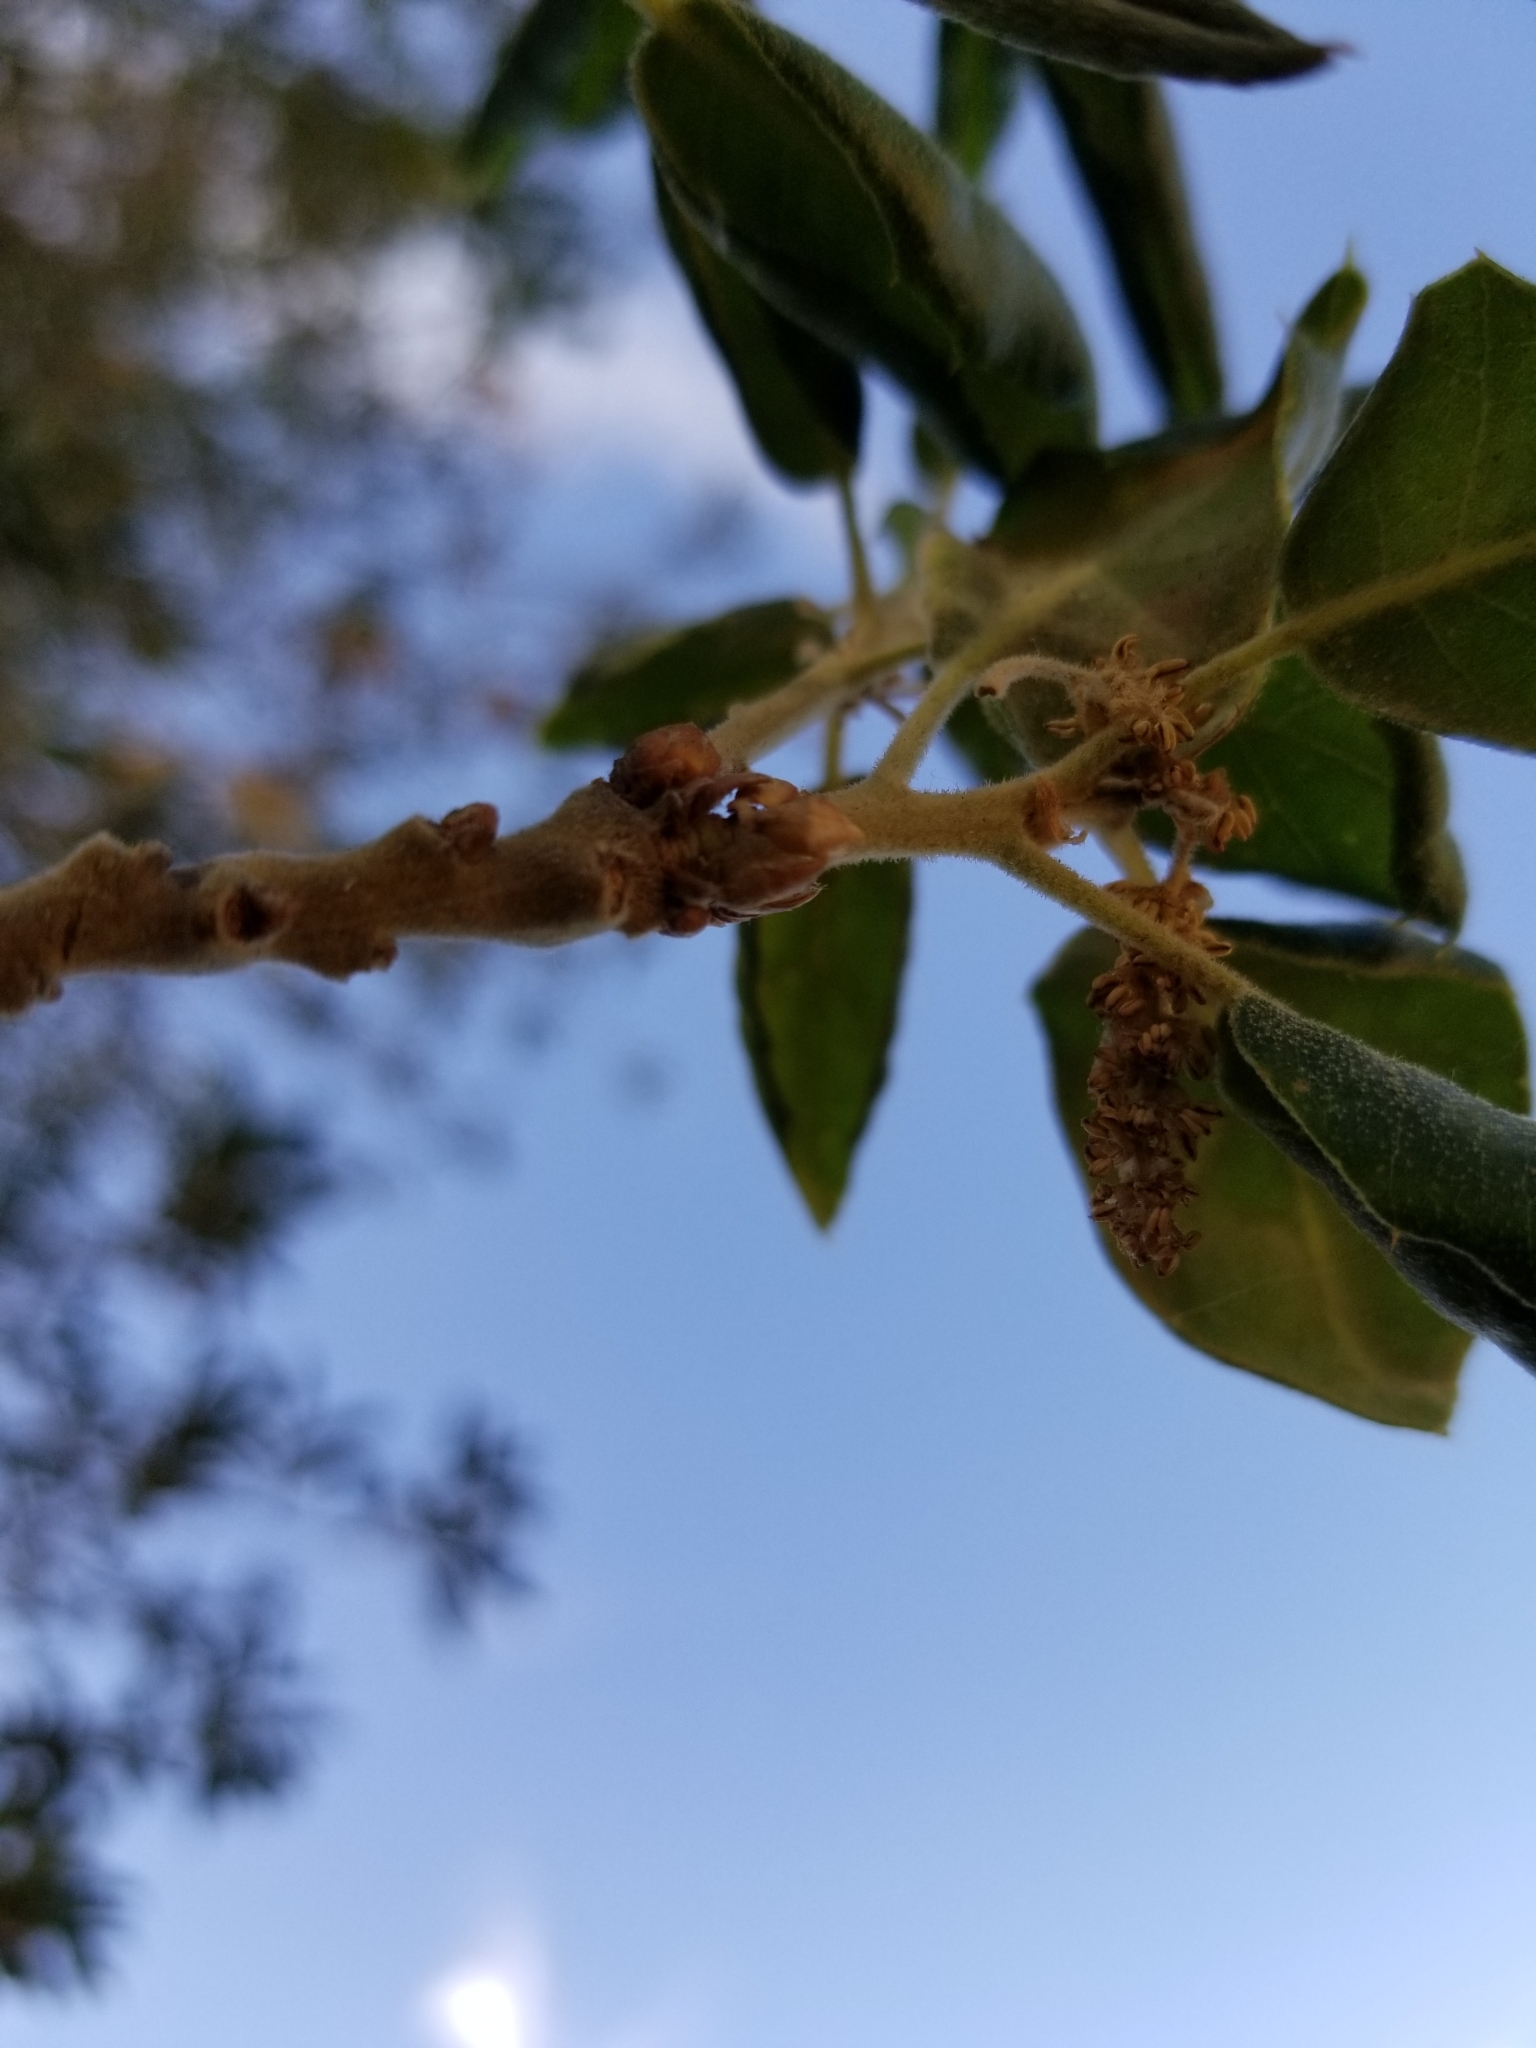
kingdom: Plantae
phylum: Tracheophyta
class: Magnoliopsida
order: Fagales
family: Fagaceae
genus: Quercus
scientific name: Quercus agrifolia
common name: California live oak
